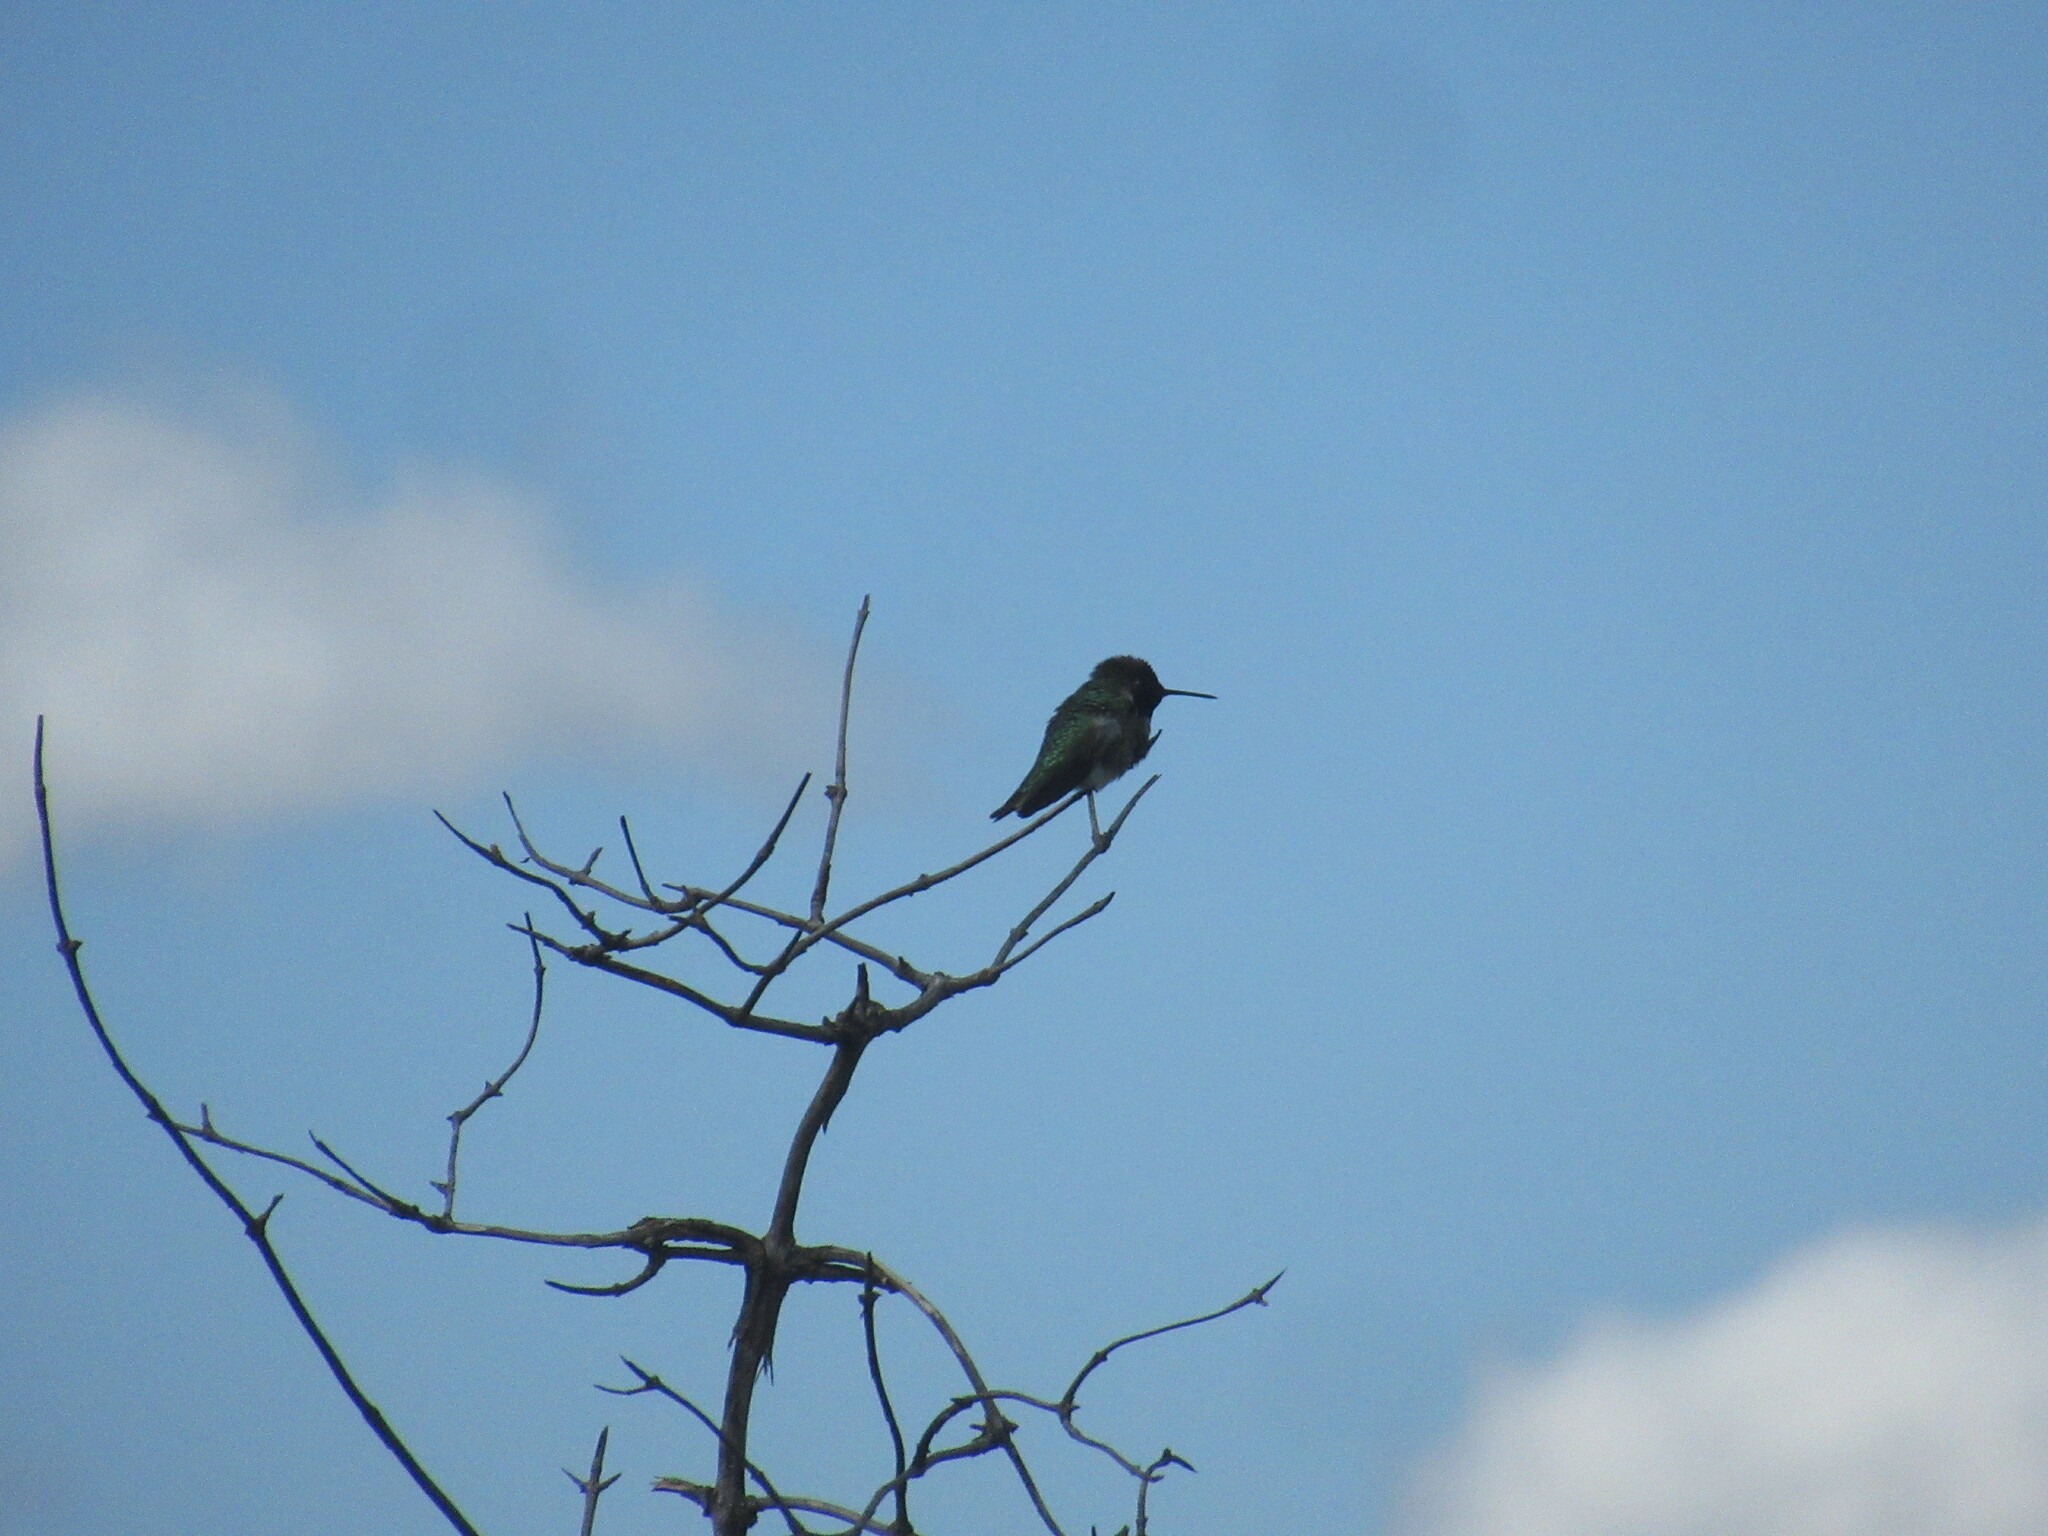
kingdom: Animalia
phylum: Chordata
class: Aves
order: Apodiformes
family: Trochilidae
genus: Calypte
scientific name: Calypte anna
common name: Anna's hummingbird
